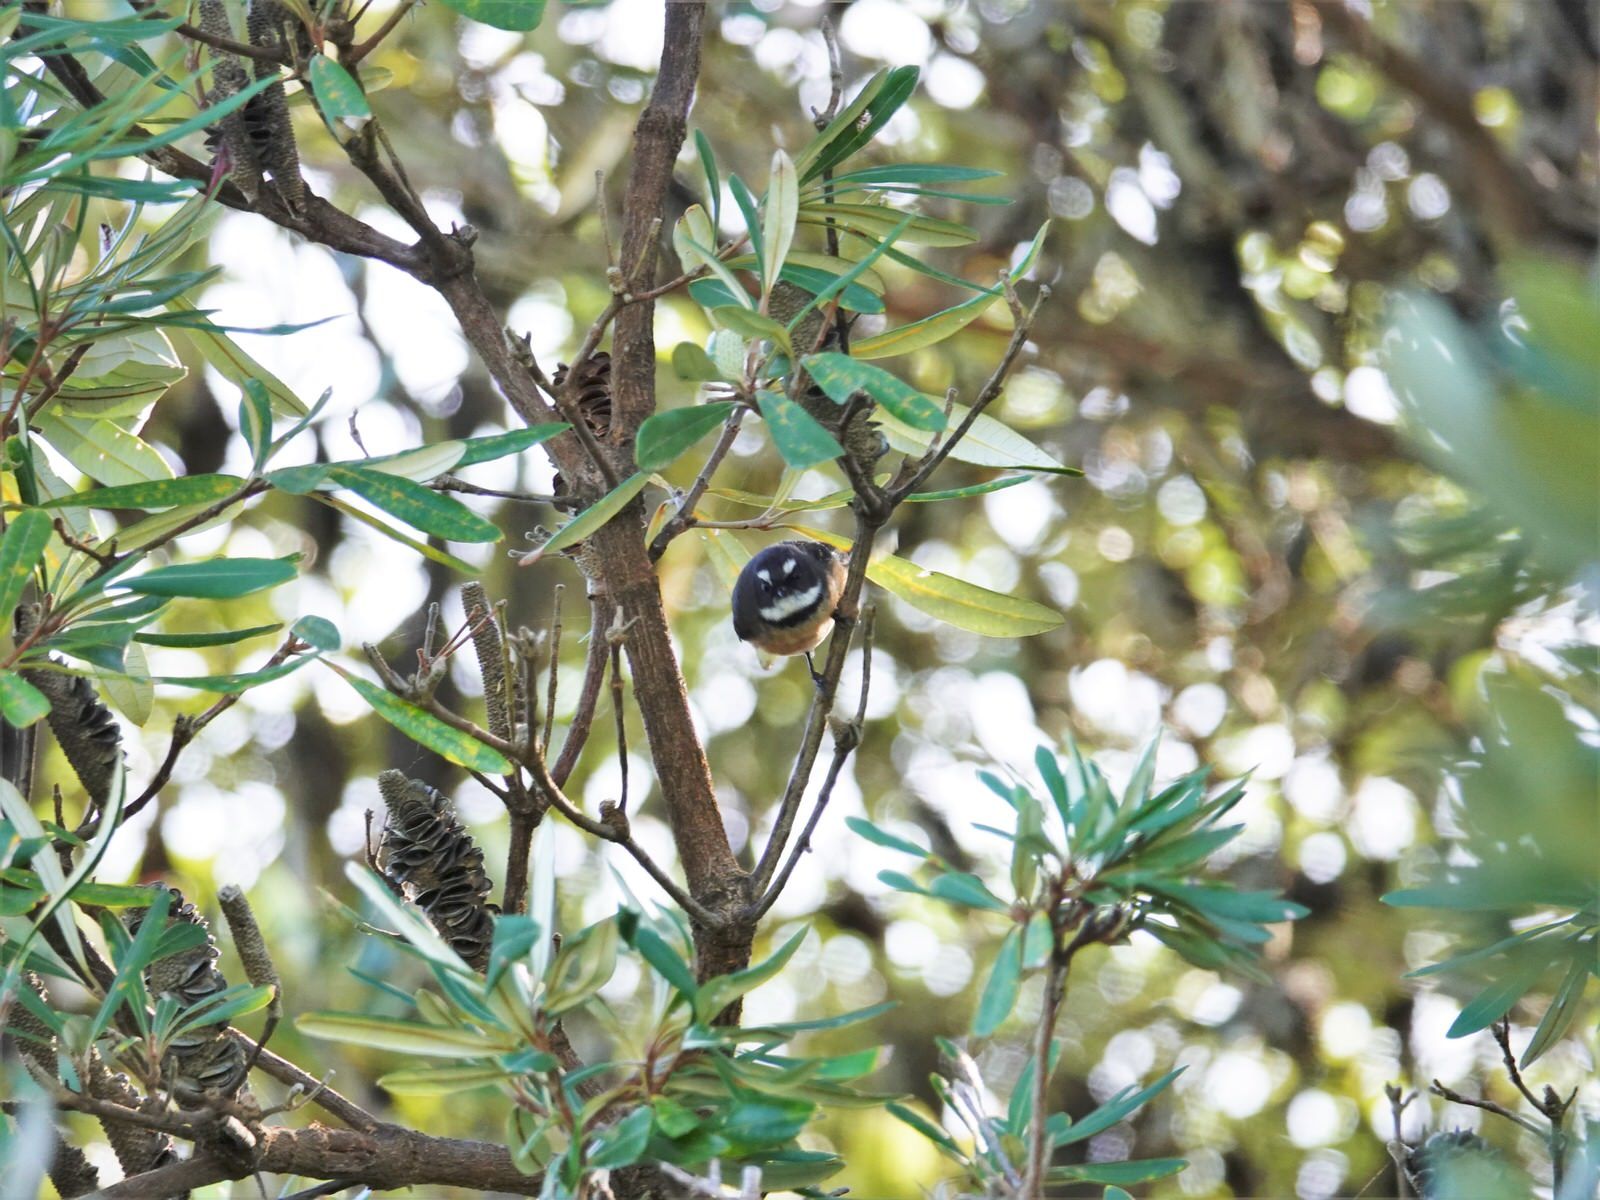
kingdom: Animalia
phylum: Chordata
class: Aves
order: Passeriformes
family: Rhipiduridae
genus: Rhipidura
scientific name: Rhipidura fuliginosa
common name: New zealand fantail
